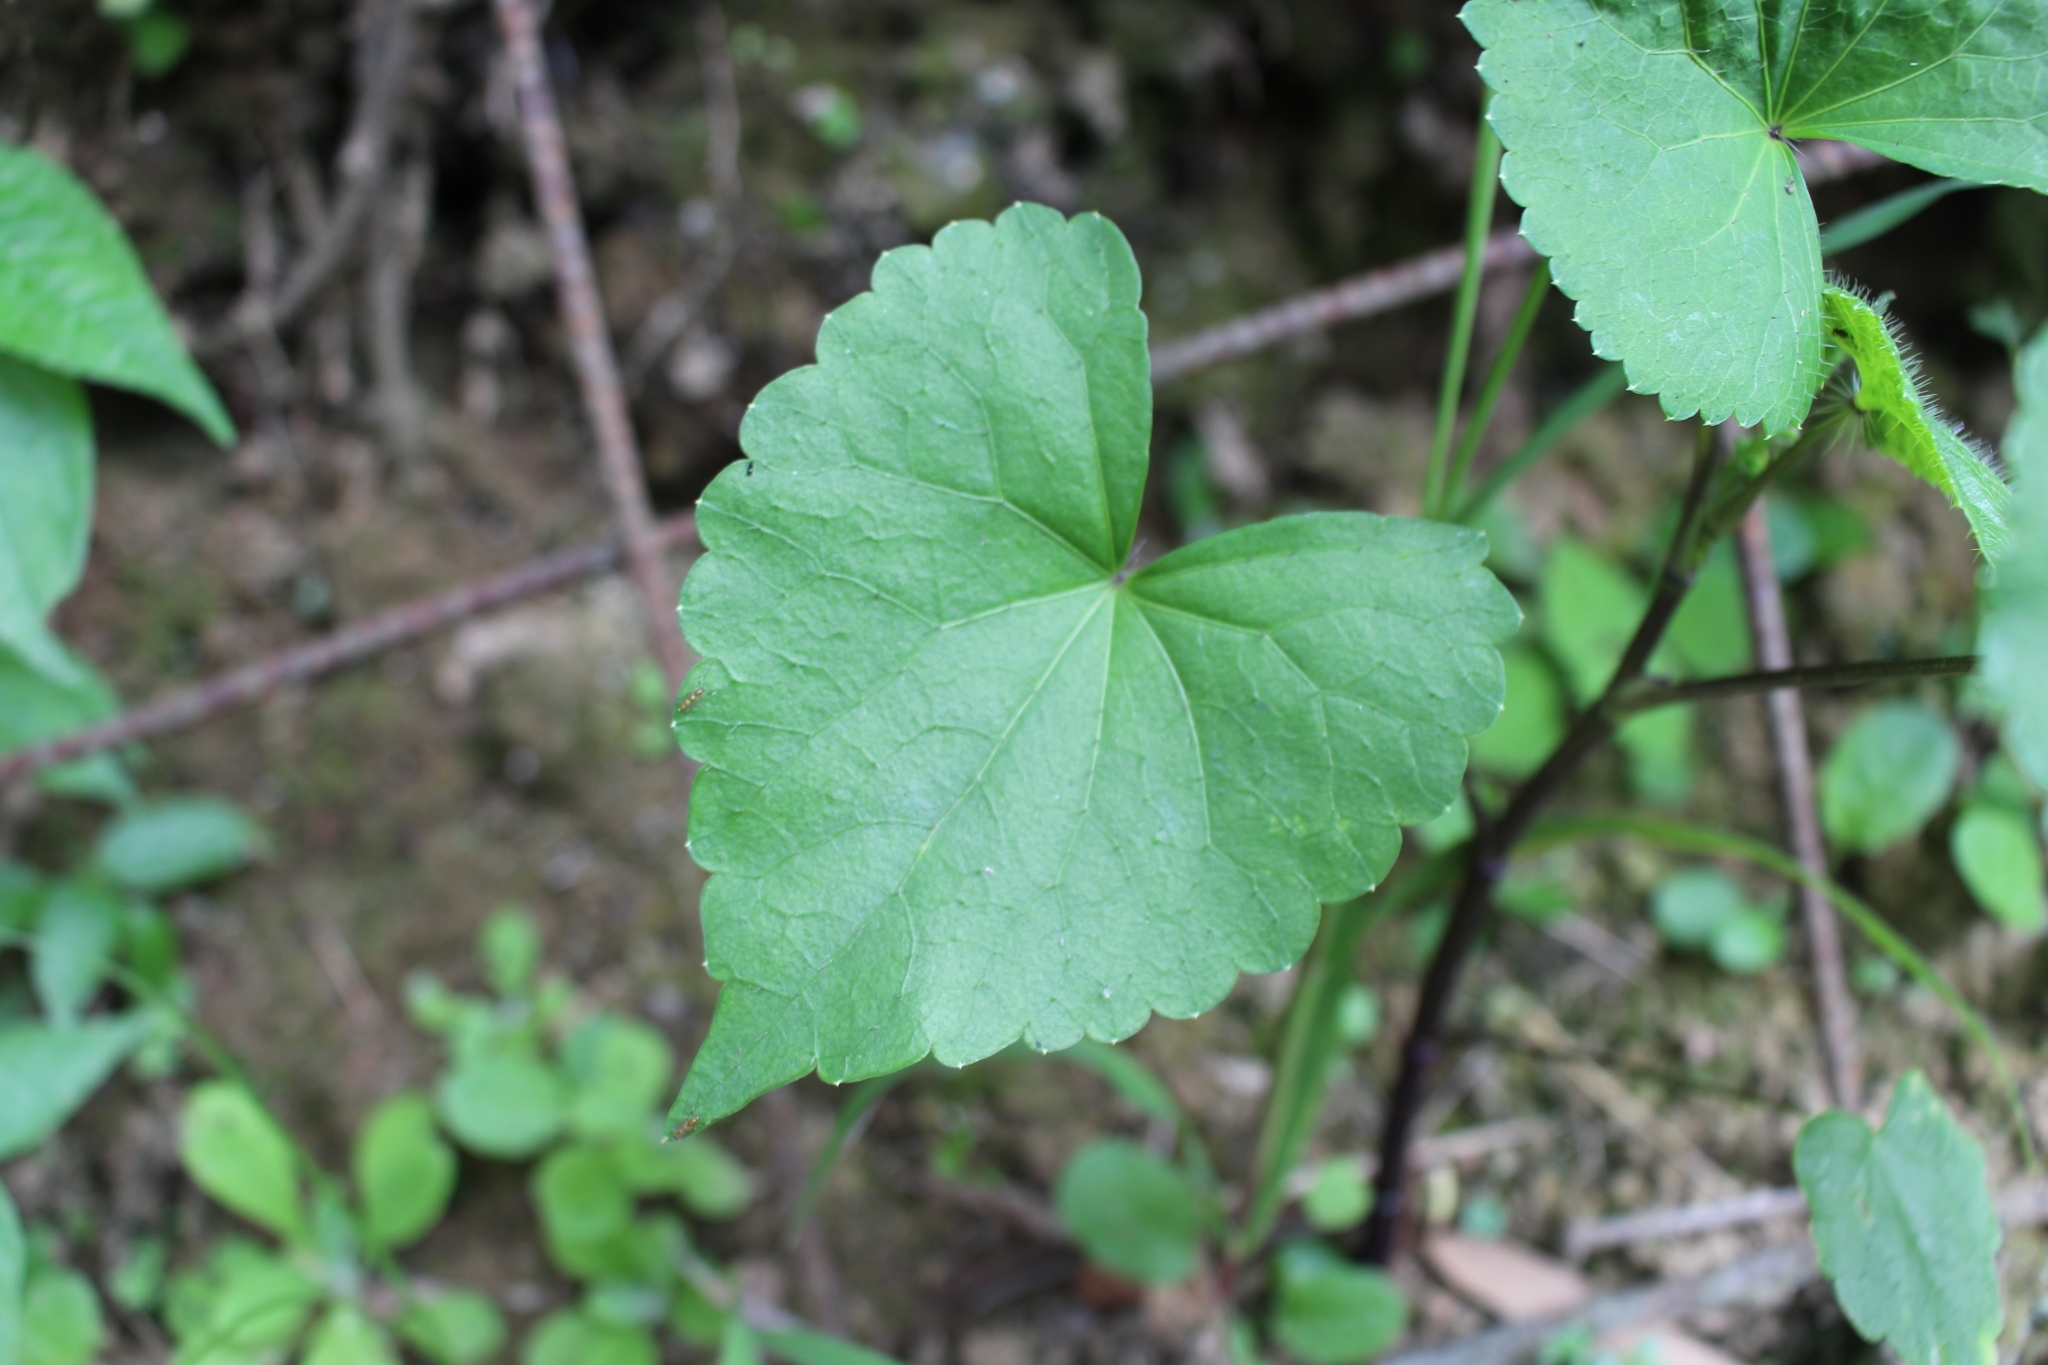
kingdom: Plantae
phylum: Tracheophyta
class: Magnoliopsida
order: Apiales
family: Apiaceae
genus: Spananthe
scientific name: Spananthe paniculata
